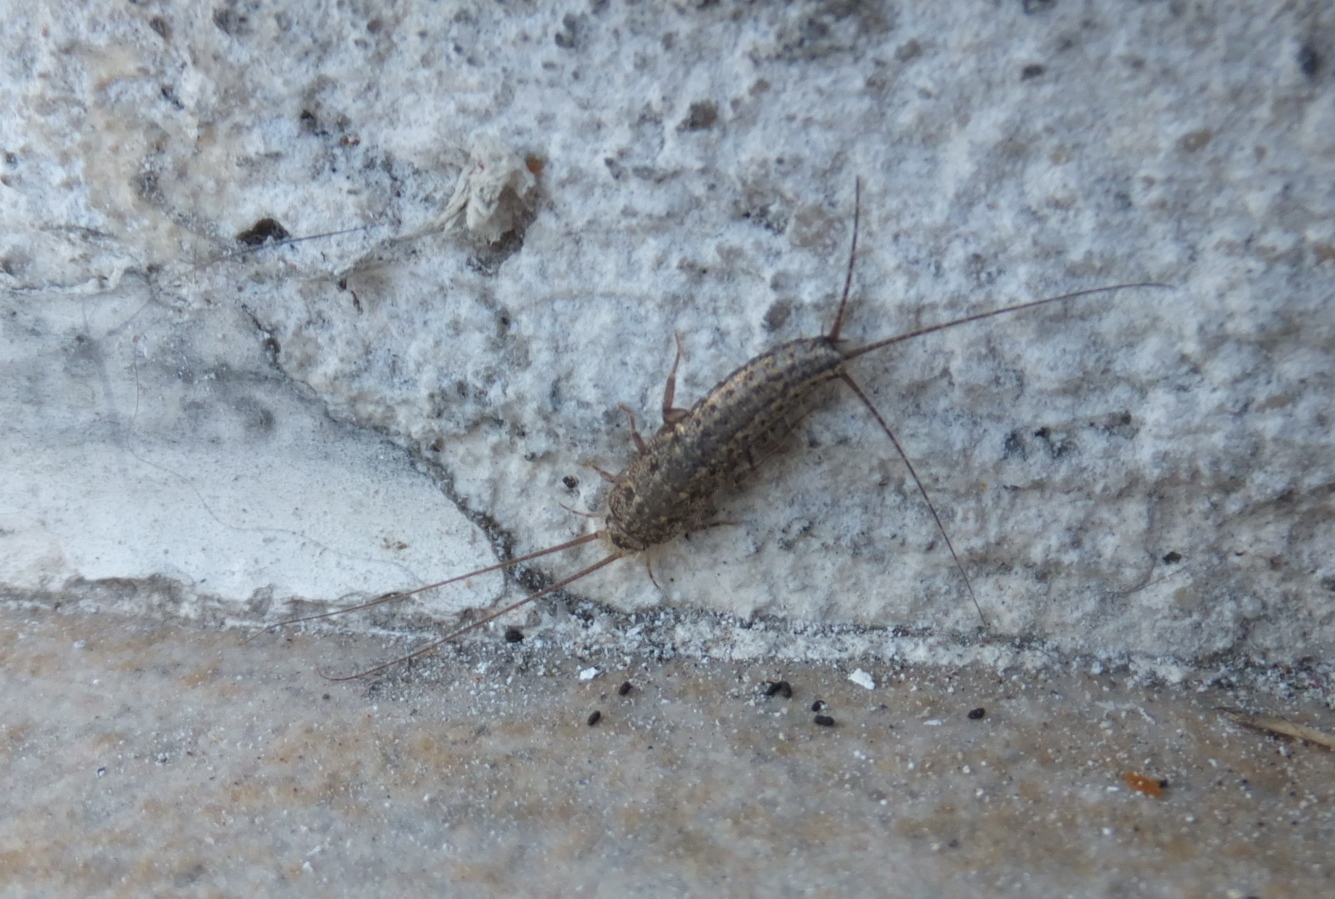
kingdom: Animalia
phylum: Arthropoda
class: Insecta
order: Zygentoma
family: Lepismatidae
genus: Ctenolepisma
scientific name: Ctenolepisma lineata
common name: Four-lined silverfish
